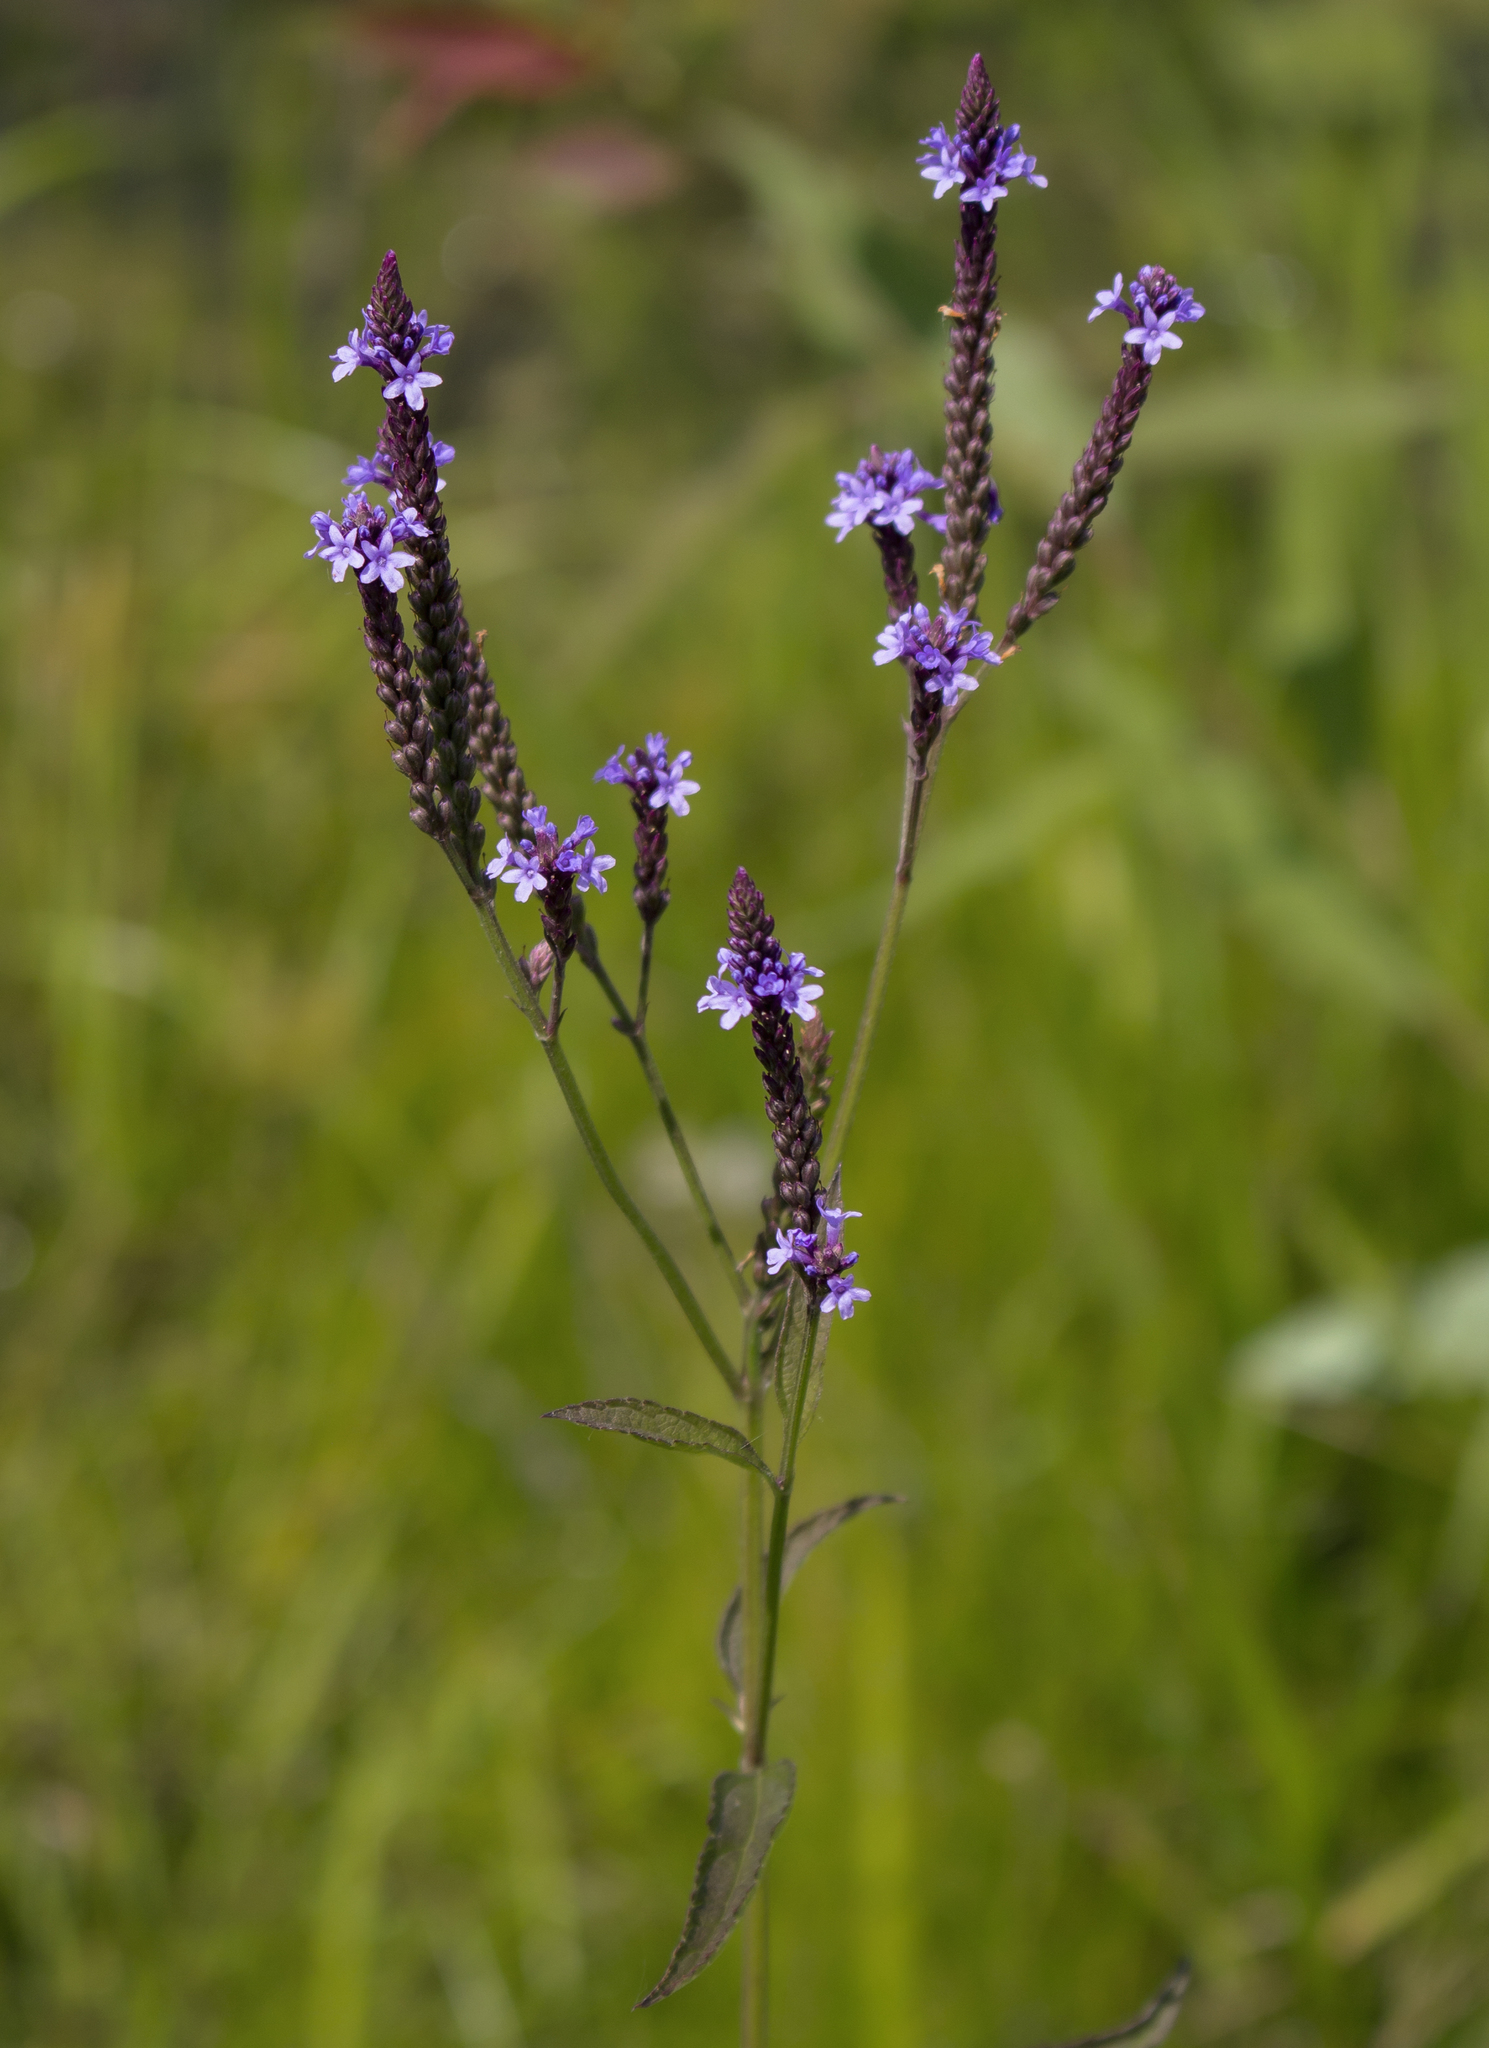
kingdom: Plantae
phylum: Tracheophyta
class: Magnoliopsida
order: Lamiales
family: Verbenaceae
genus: Verbena
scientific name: Verbena hastata
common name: American blue vervain
